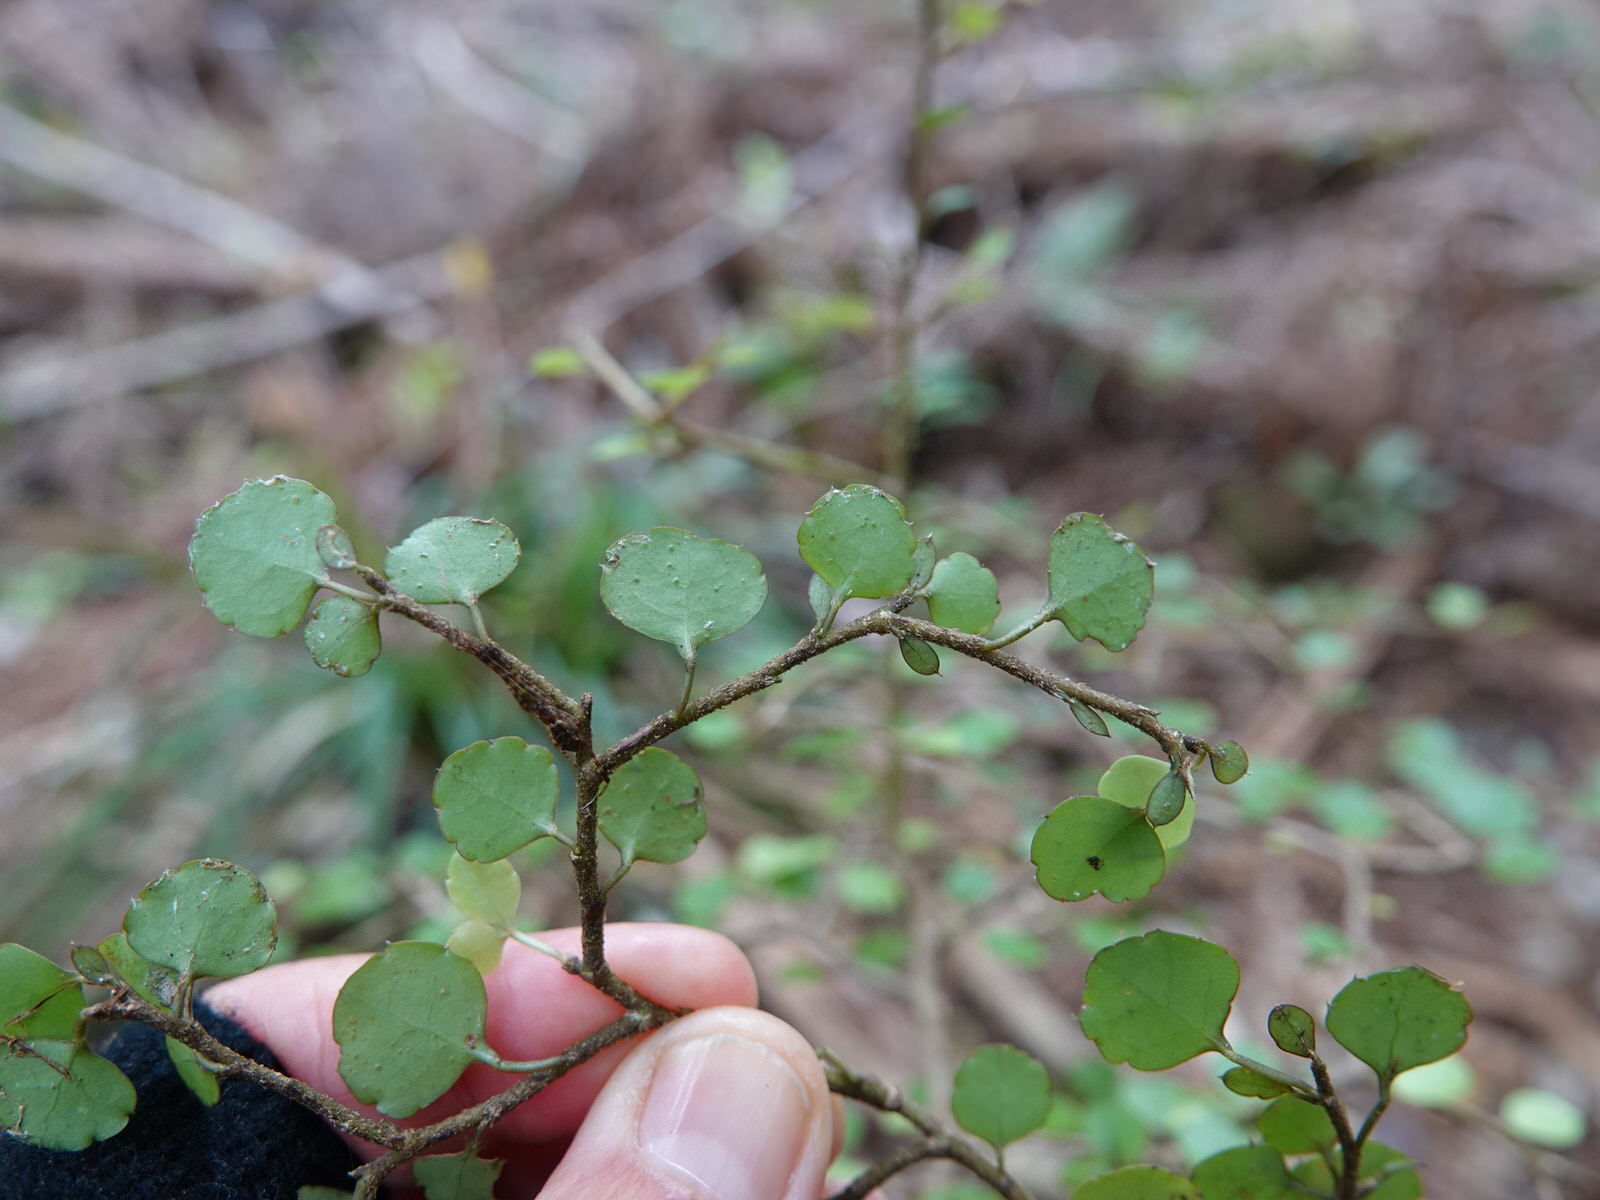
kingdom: Plantae
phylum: Tracheophyta
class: Magnoliopsida
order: Apiales
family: Araliaceae
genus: Raukaua
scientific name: Raukaua anomalus
